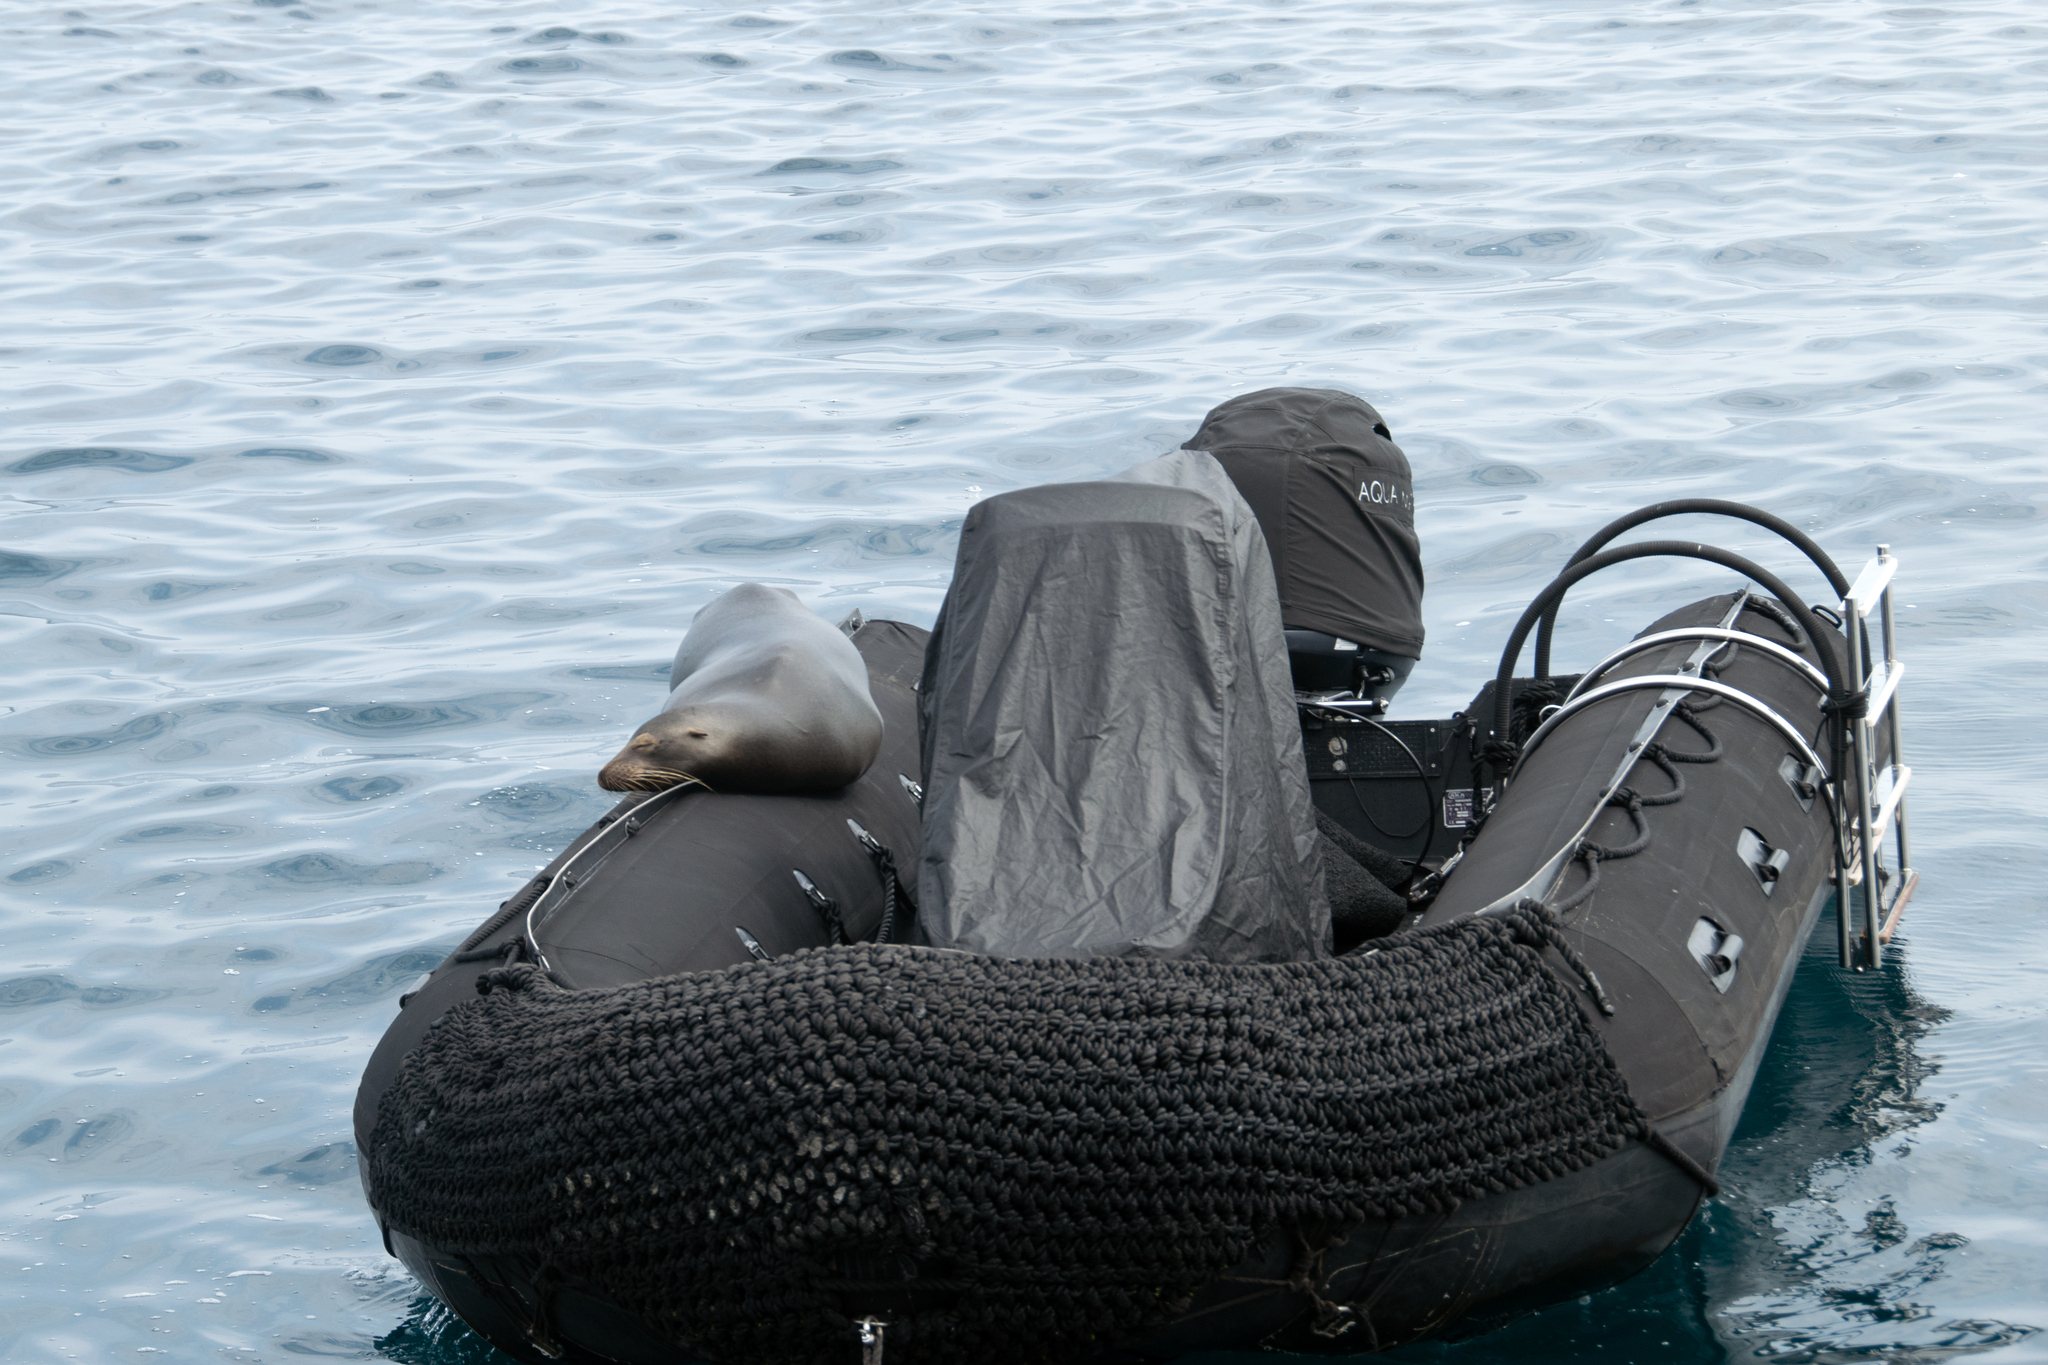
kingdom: Animalia
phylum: Chordata
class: Mammalia
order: Carnivora
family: Otariidae
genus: Zalophus
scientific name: Zalophus wollebaeki
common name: Galapagos sea lion
